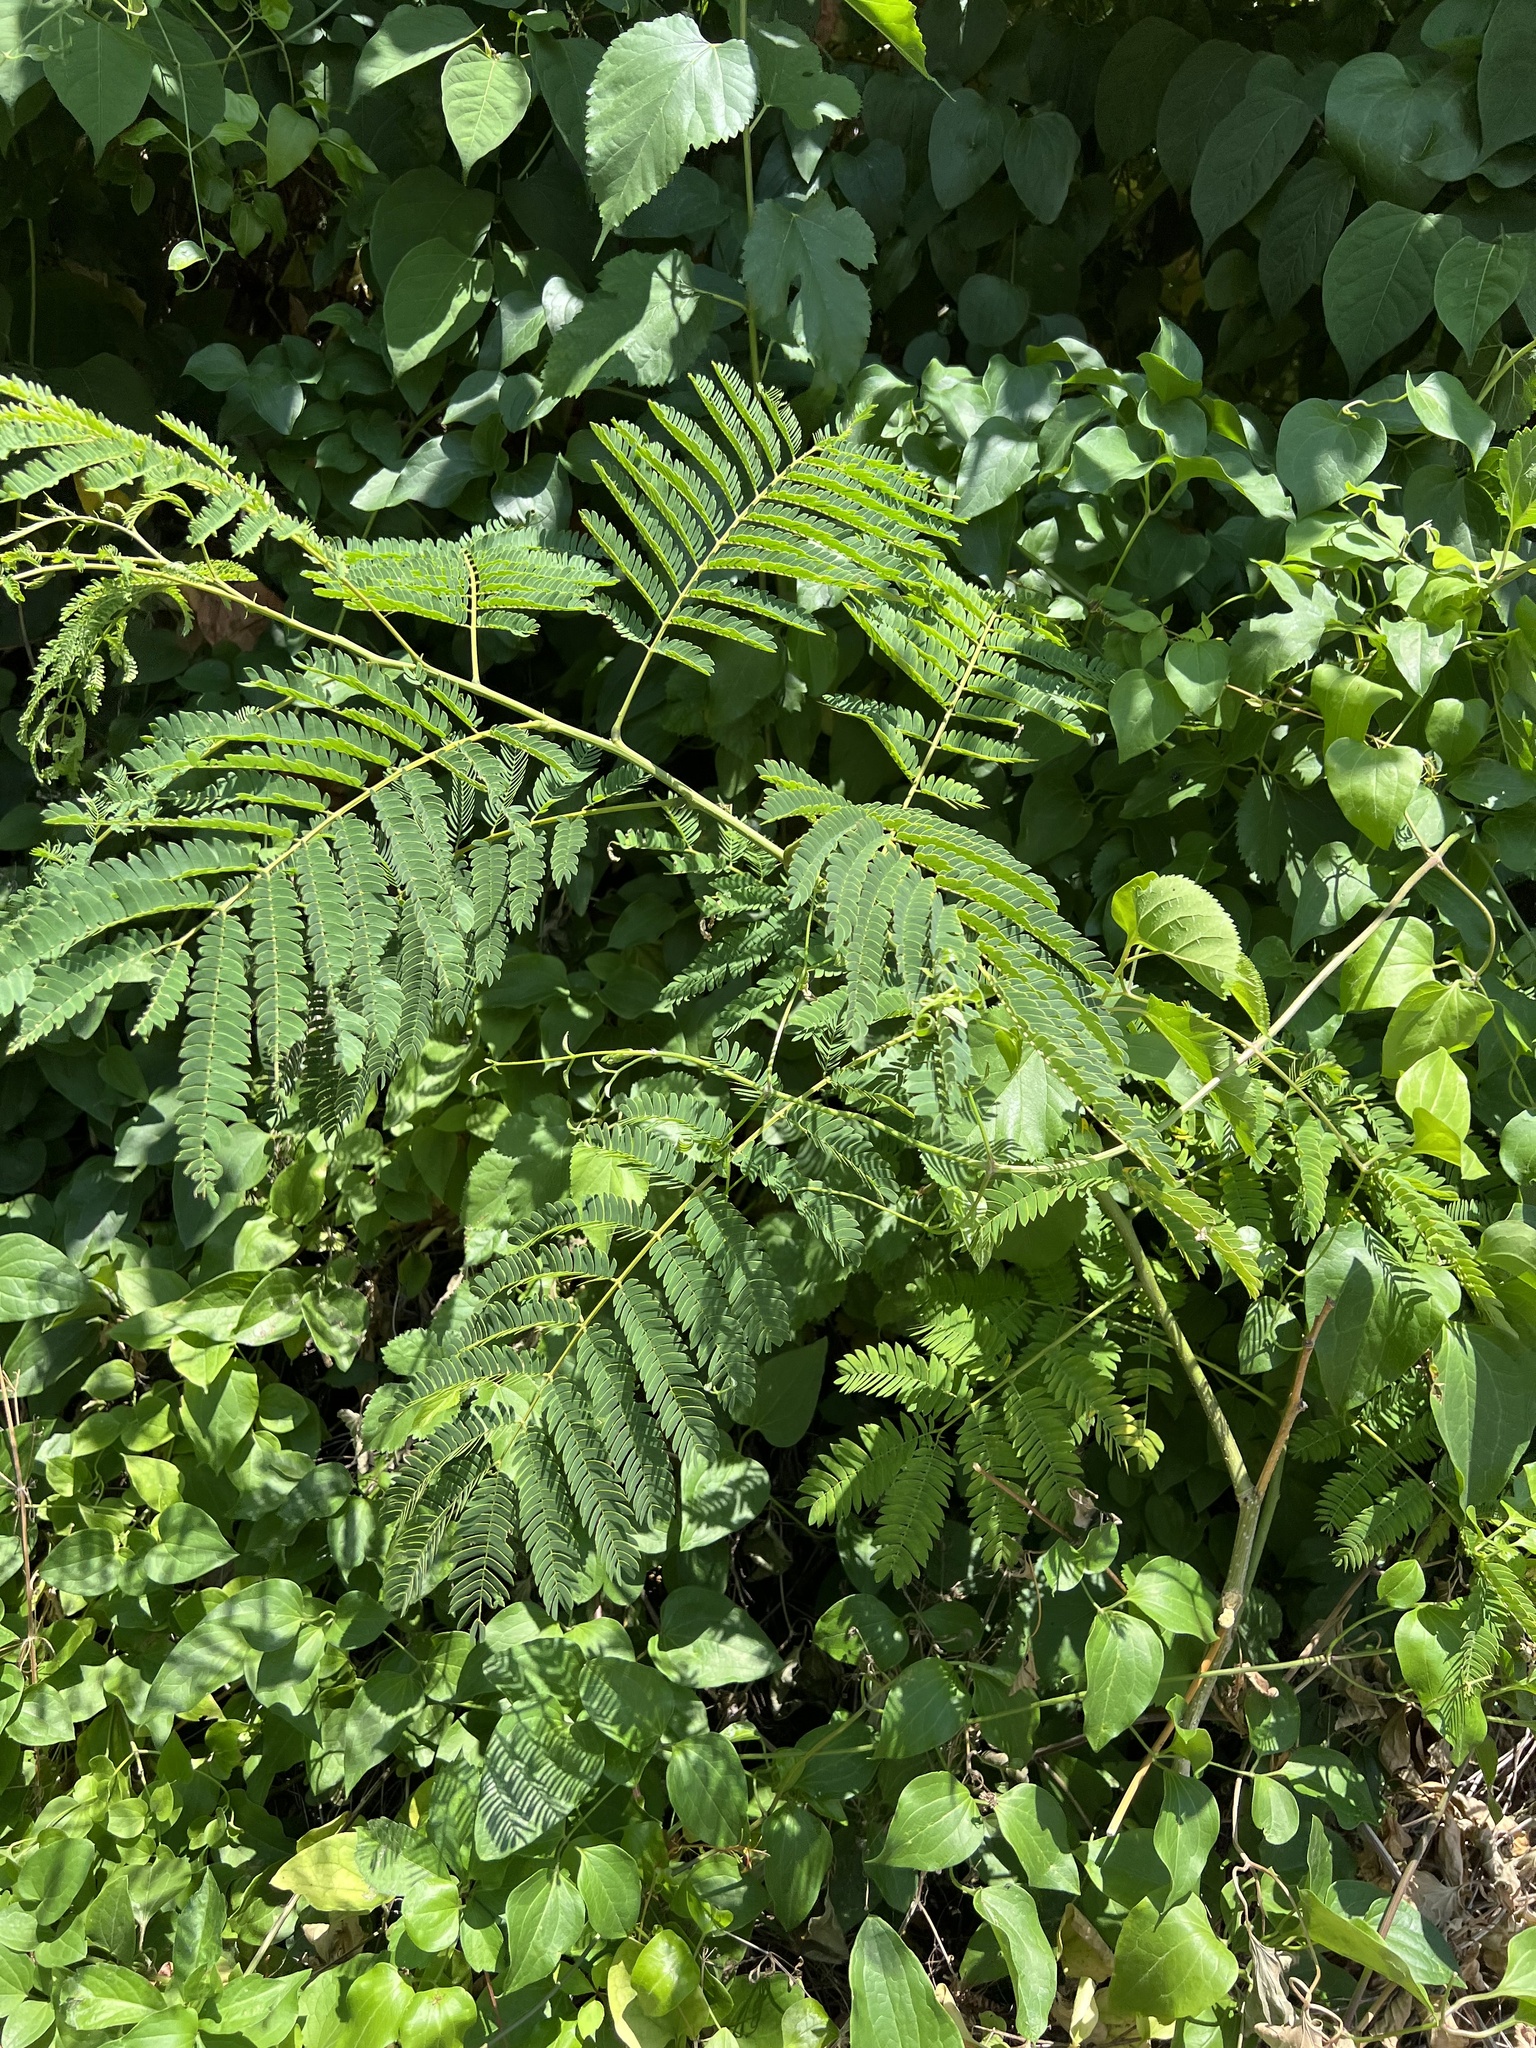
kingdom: Plantae
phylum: Tracheophyta
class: Magnoliopsida
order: Fabales
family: Fabaceae
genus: Albizia
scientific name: Albizia julibrissin
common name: Silktree
